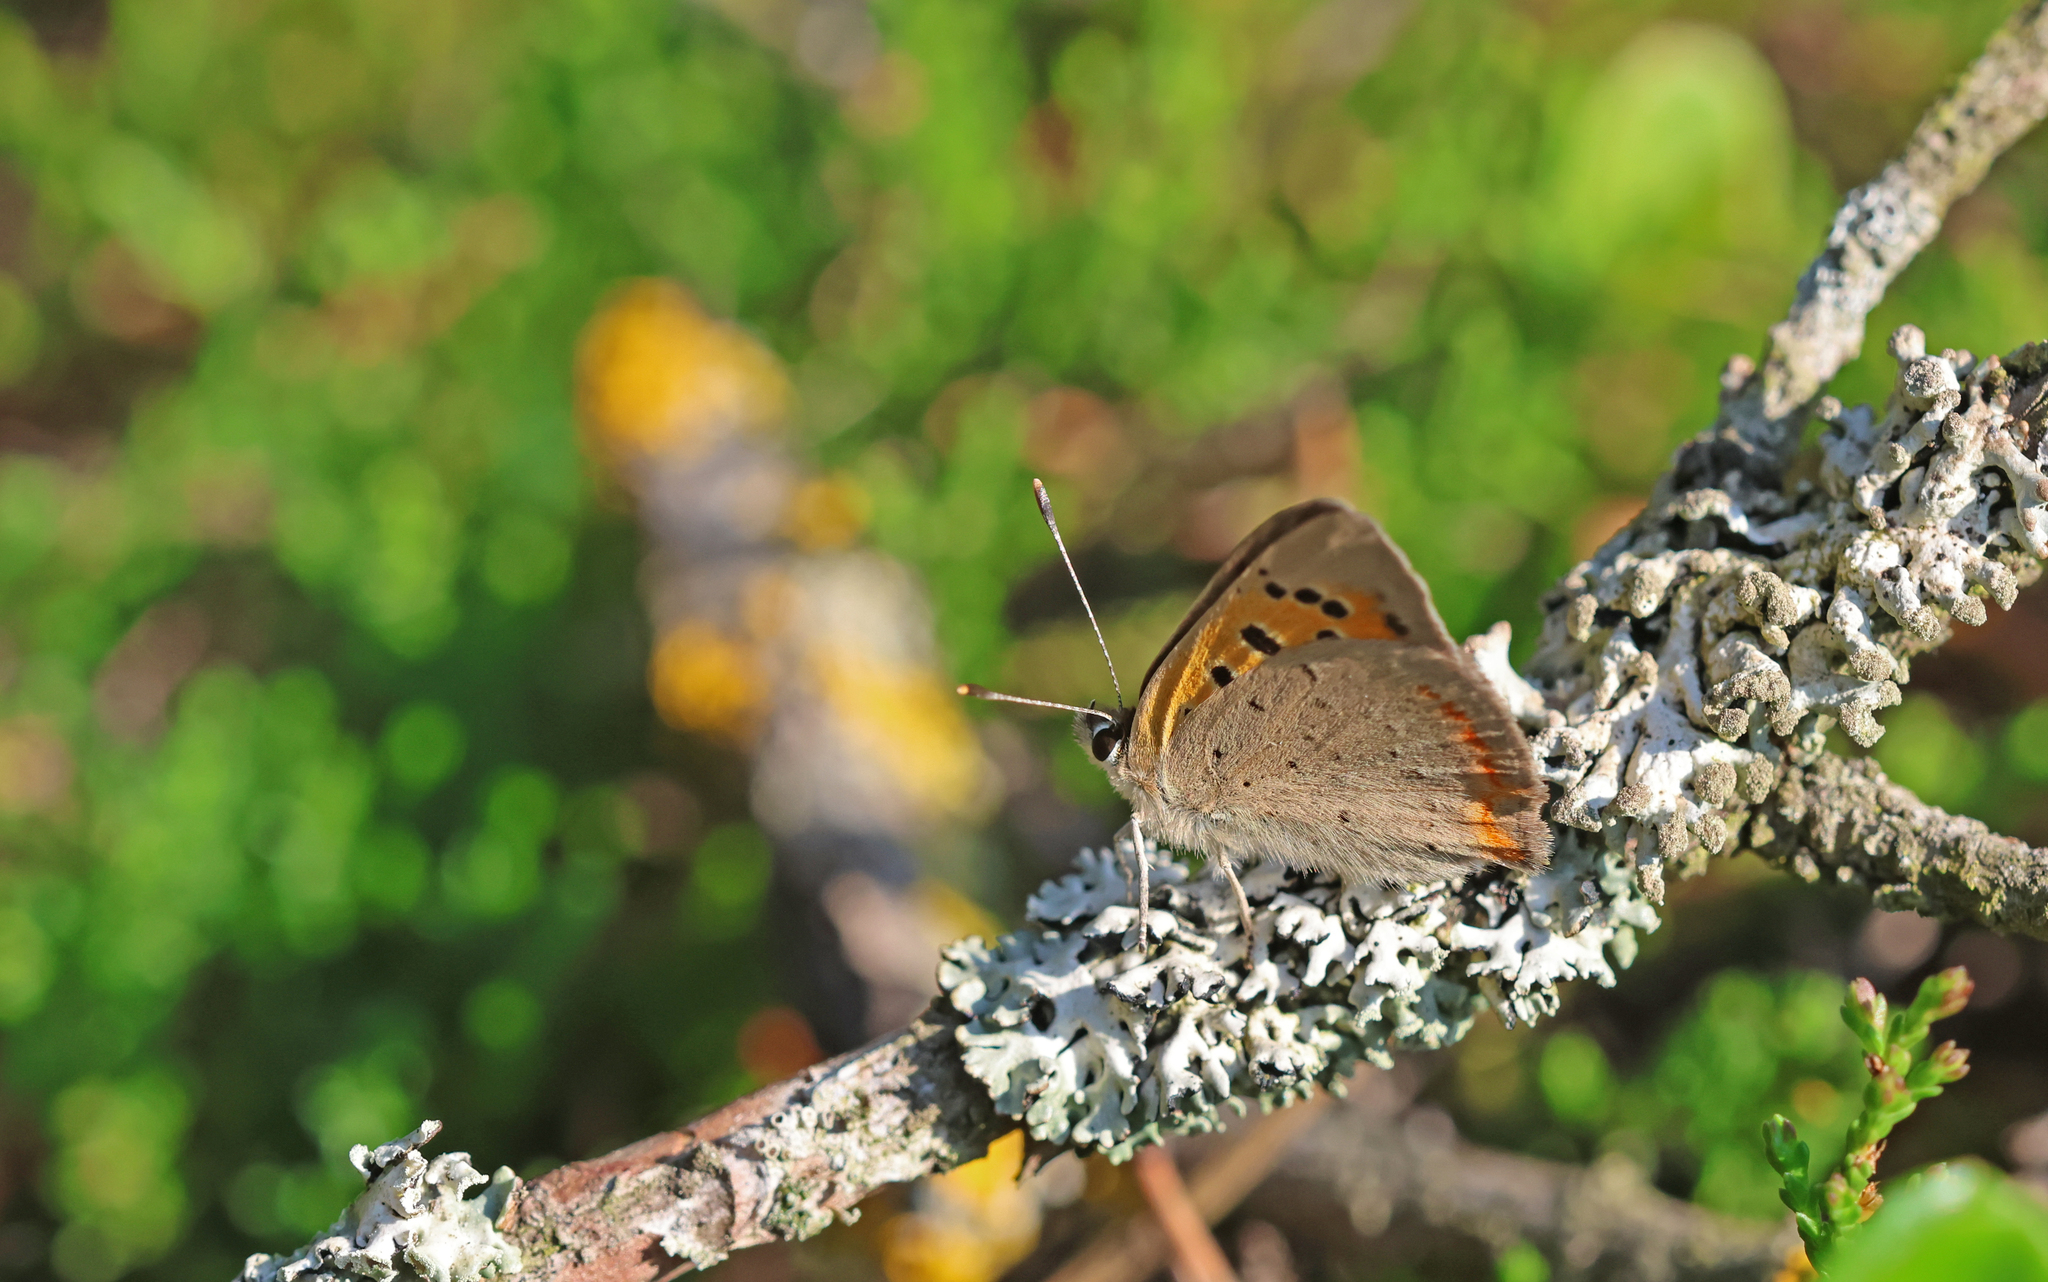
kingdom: Animalia
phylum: Arthropoda
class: Insecta
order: Lepidoptera
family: Lycaenidae
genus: Lycaena
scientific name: Lycaena phlaeas
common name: Small copper
